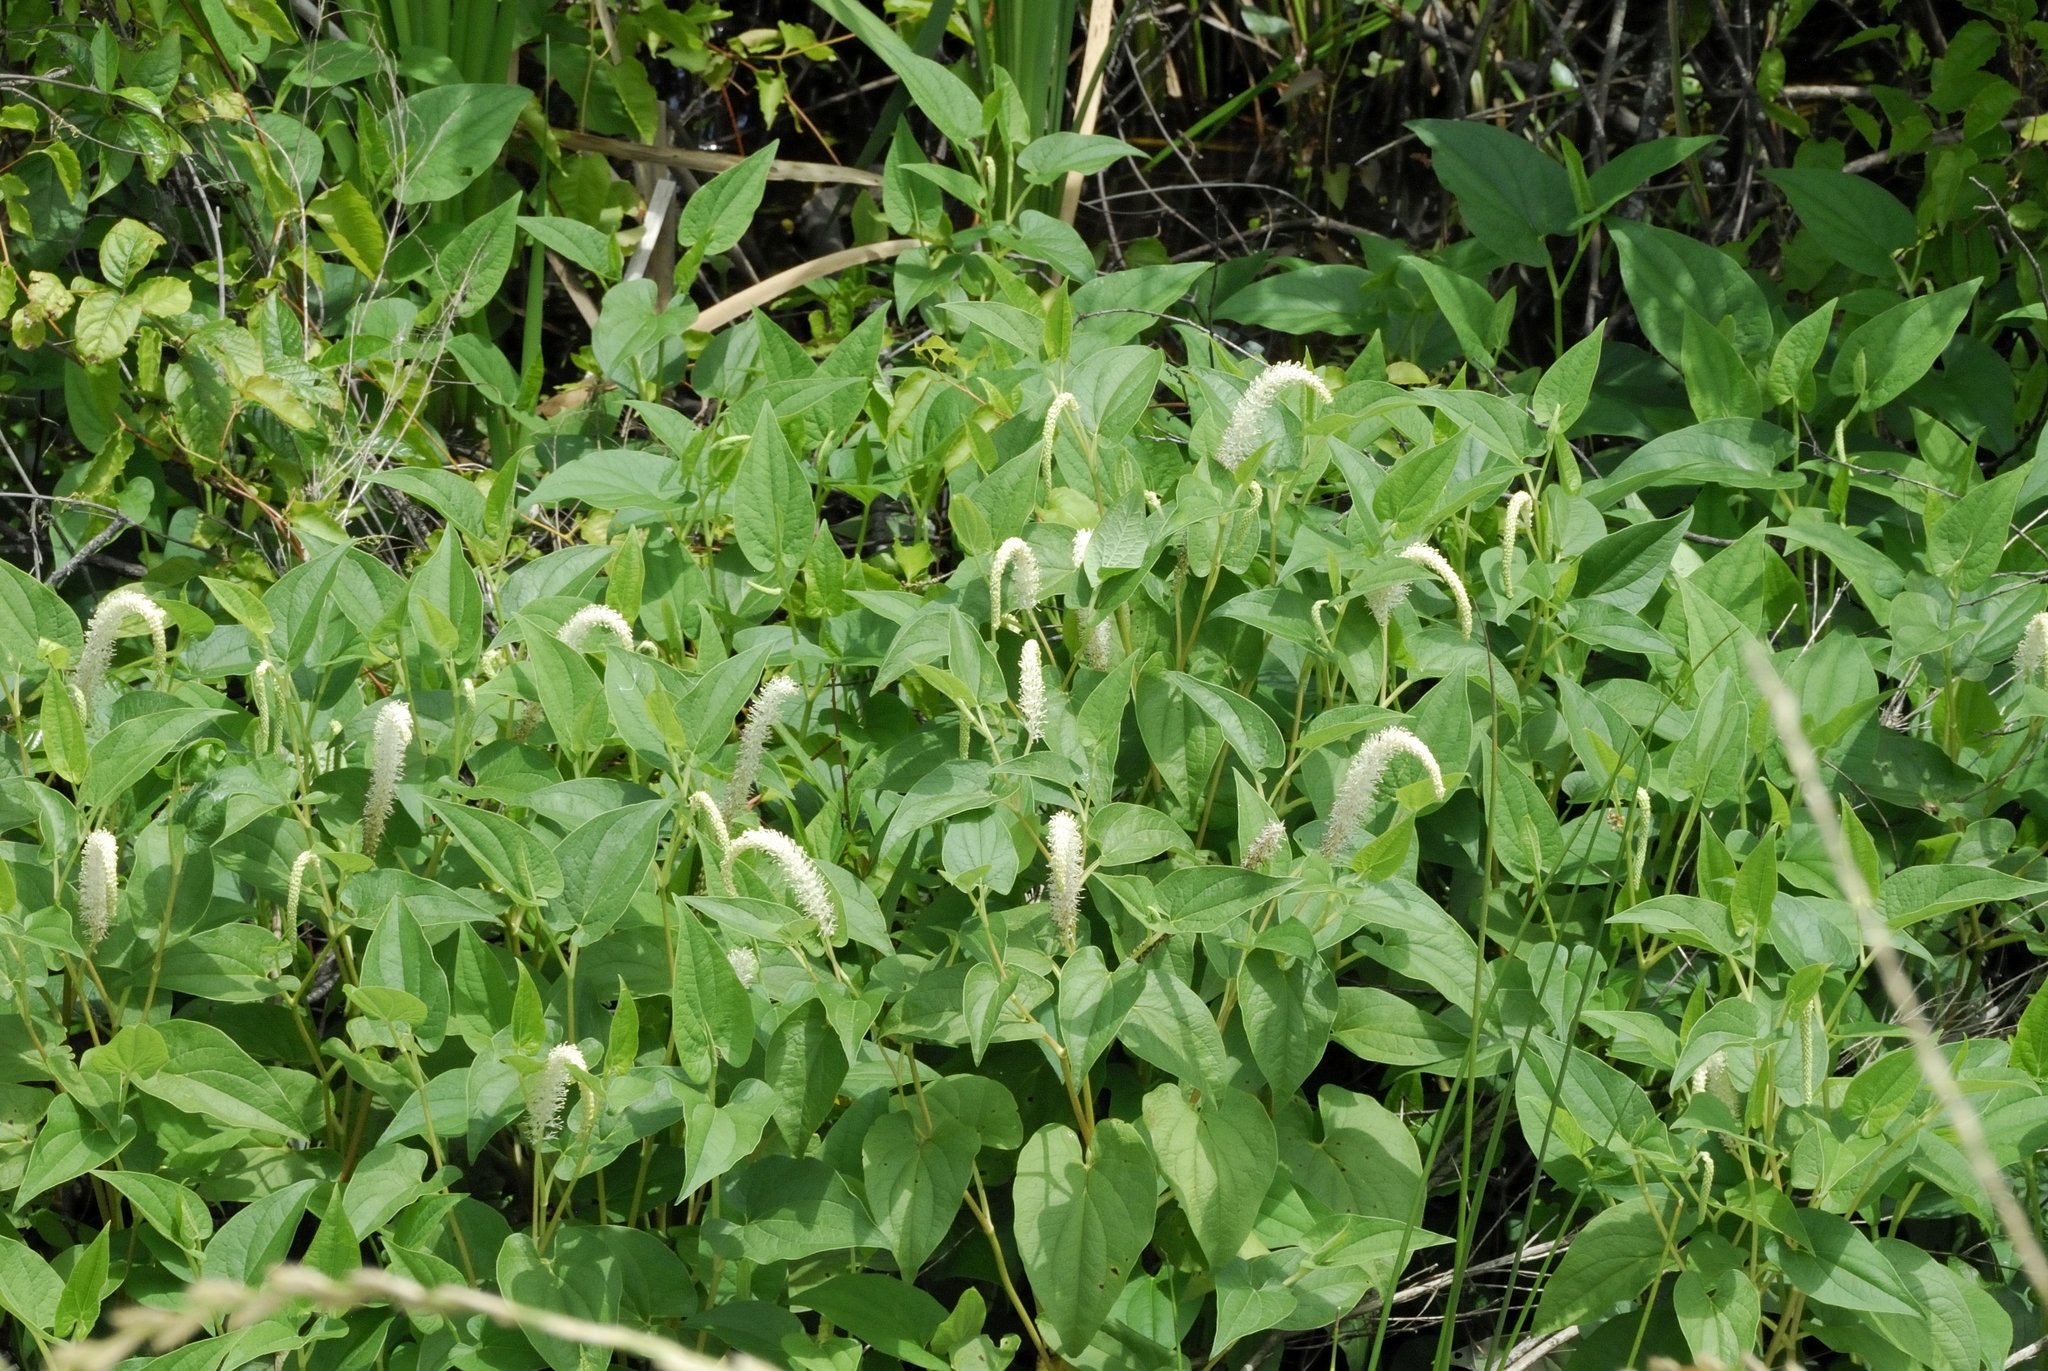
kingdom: Plantae
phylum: Tracheophyta
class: Magnoliopsida
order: Piperales
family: Saururaceae
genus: Saururus
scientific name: Saururus cernuus
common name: Lizard's-tail
